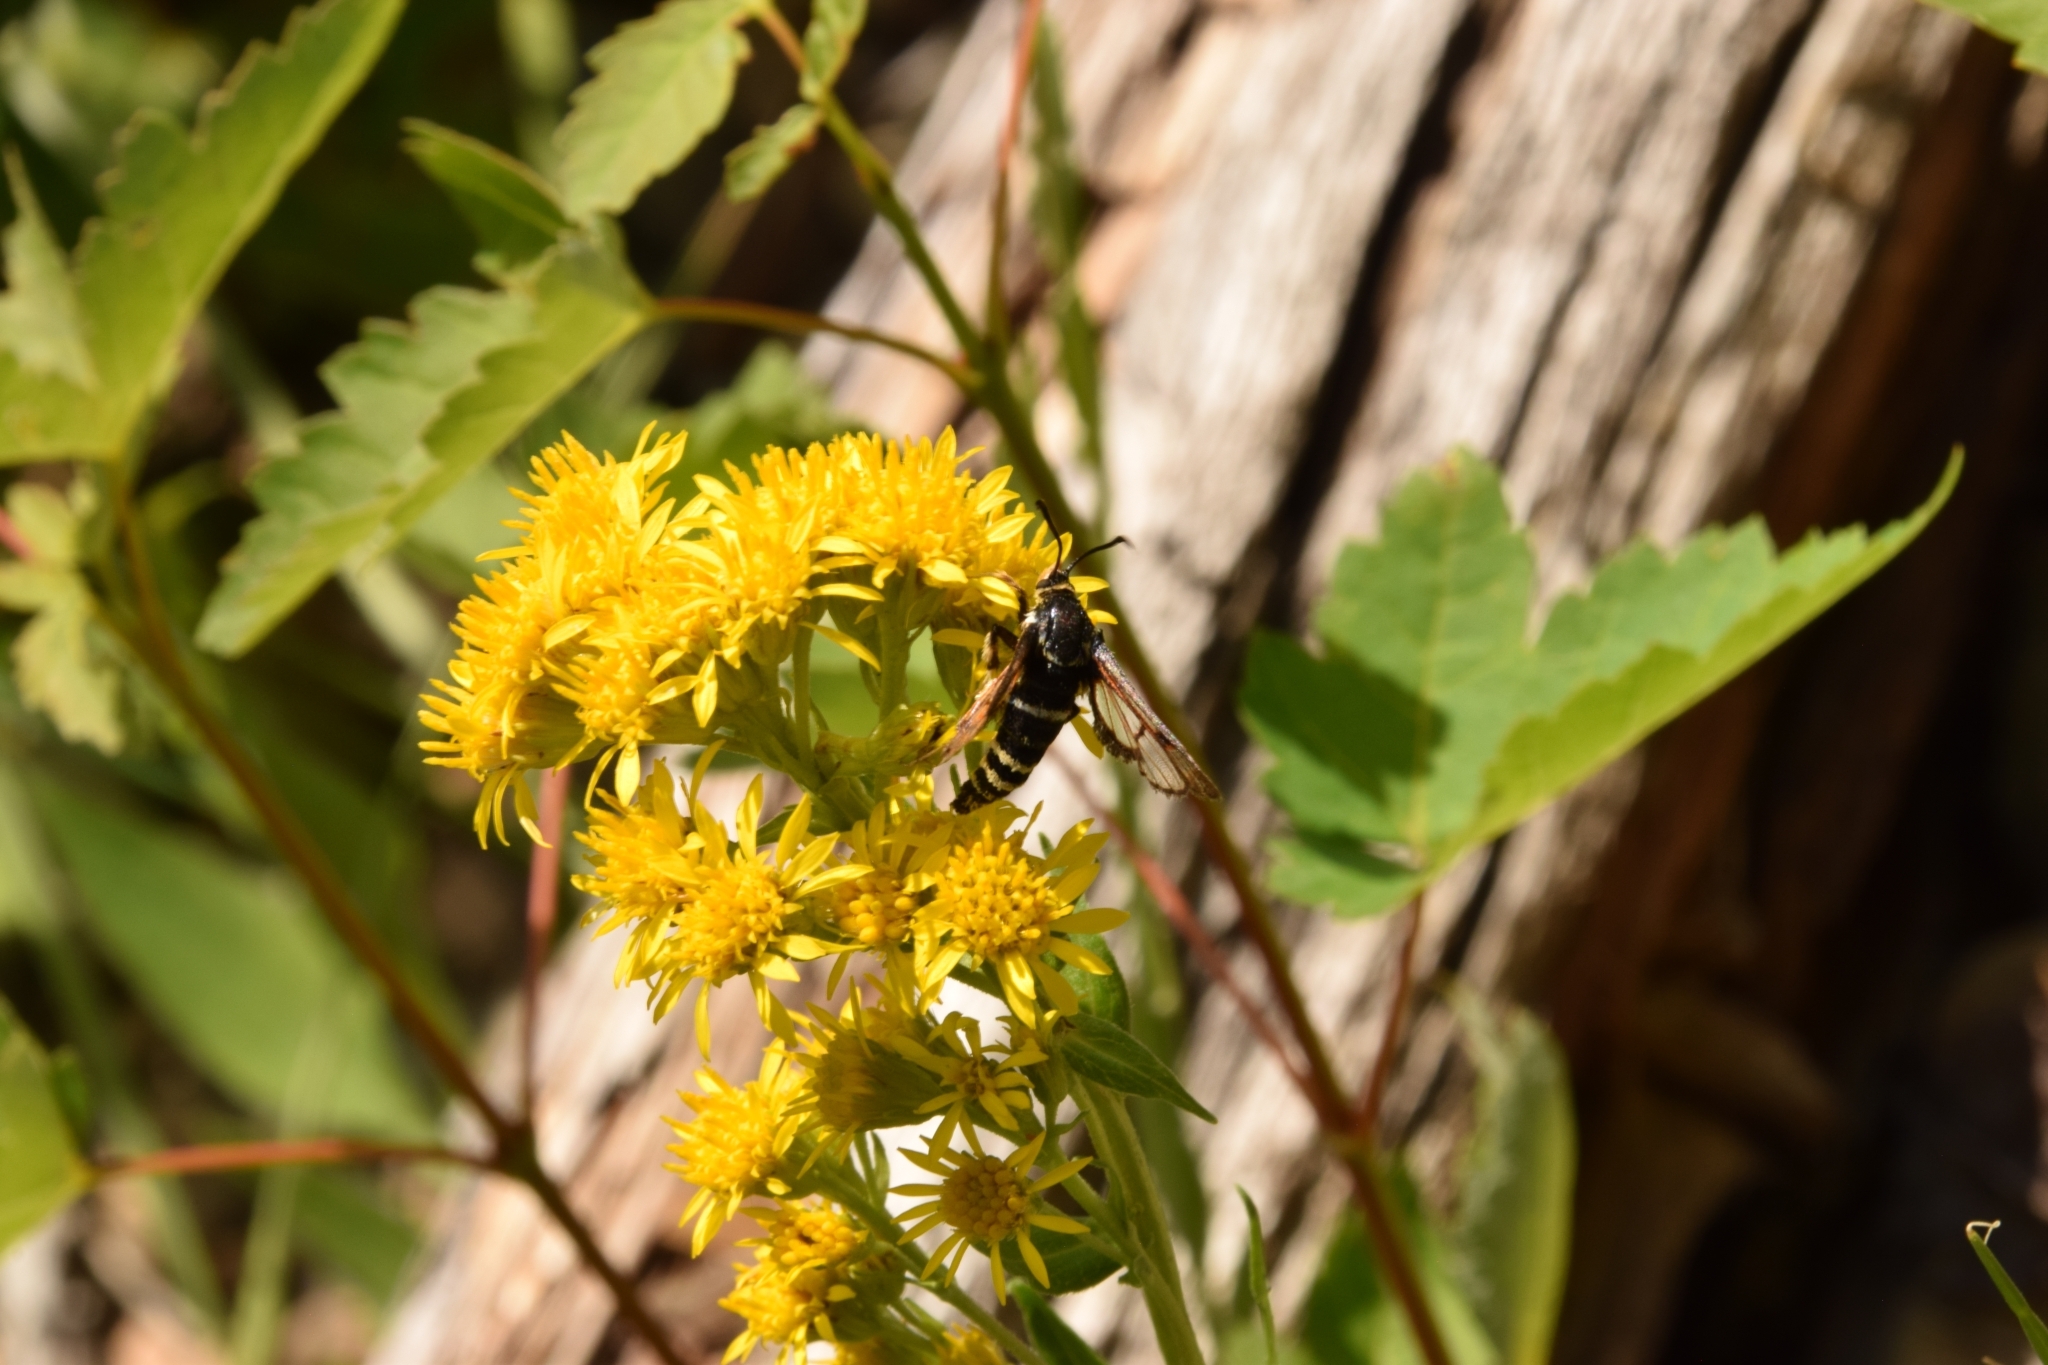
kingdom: Animalia
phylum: Arthropoda
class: Insecta
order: Lepidoptera
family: Sesiidae
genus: Albuna
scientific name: Albuna pyramidalis
